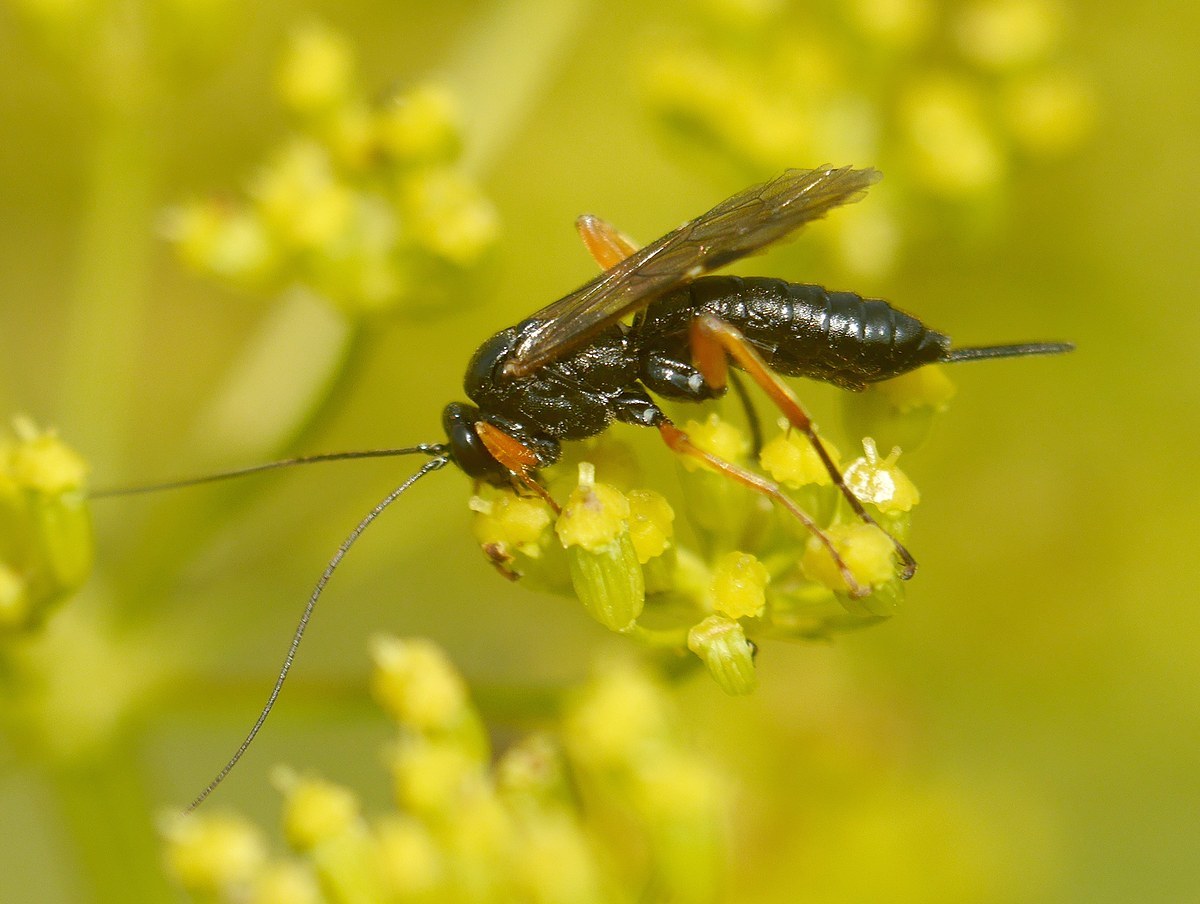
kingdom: Animalia
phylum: Arthropoda
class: Insecta
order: Hymenoptera
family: Ichneumonidae
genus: Pimpla
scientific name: Pimpla rufipes
